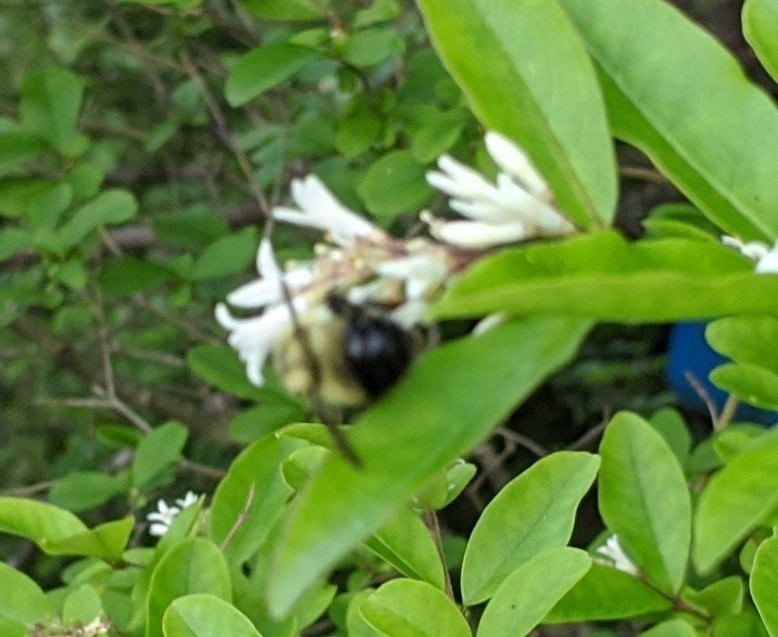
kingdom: Animalia
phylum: Arthropoda
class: Insecta
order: Hymenoptera
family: Apidae
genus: Pyrobombus
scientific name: Pyrobombus
